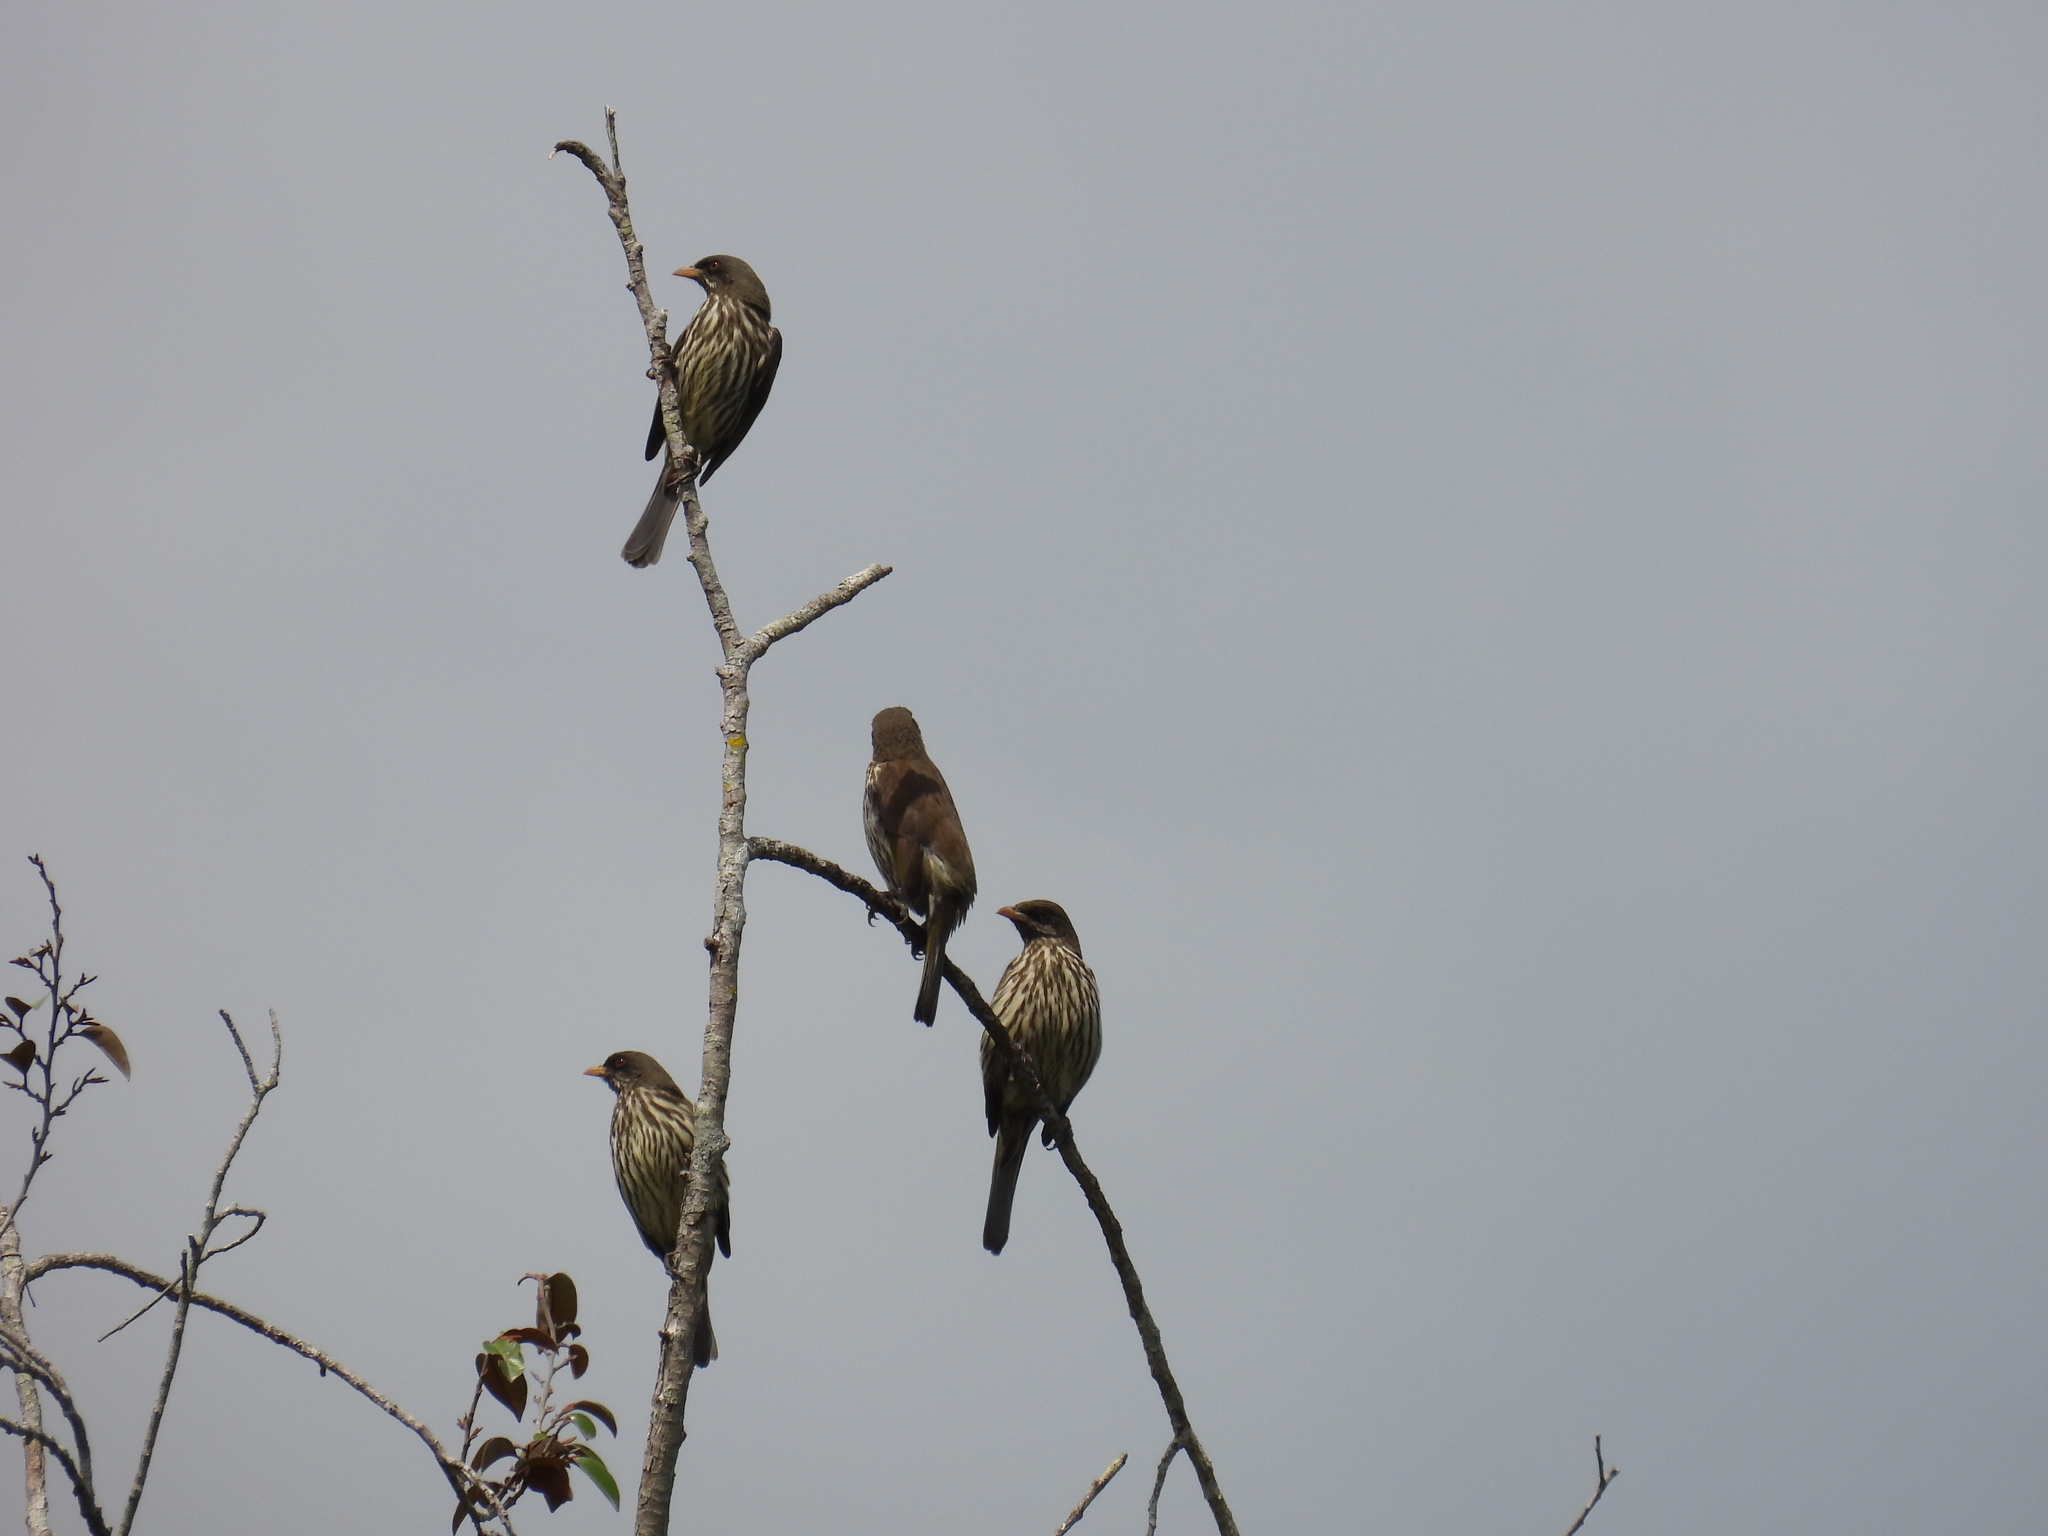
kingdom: Animalia
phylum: Chordata
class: Aves
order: Passeriformes
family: Dulidae
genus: Dulus
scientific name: Dulus dominicus
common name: Palmchat
